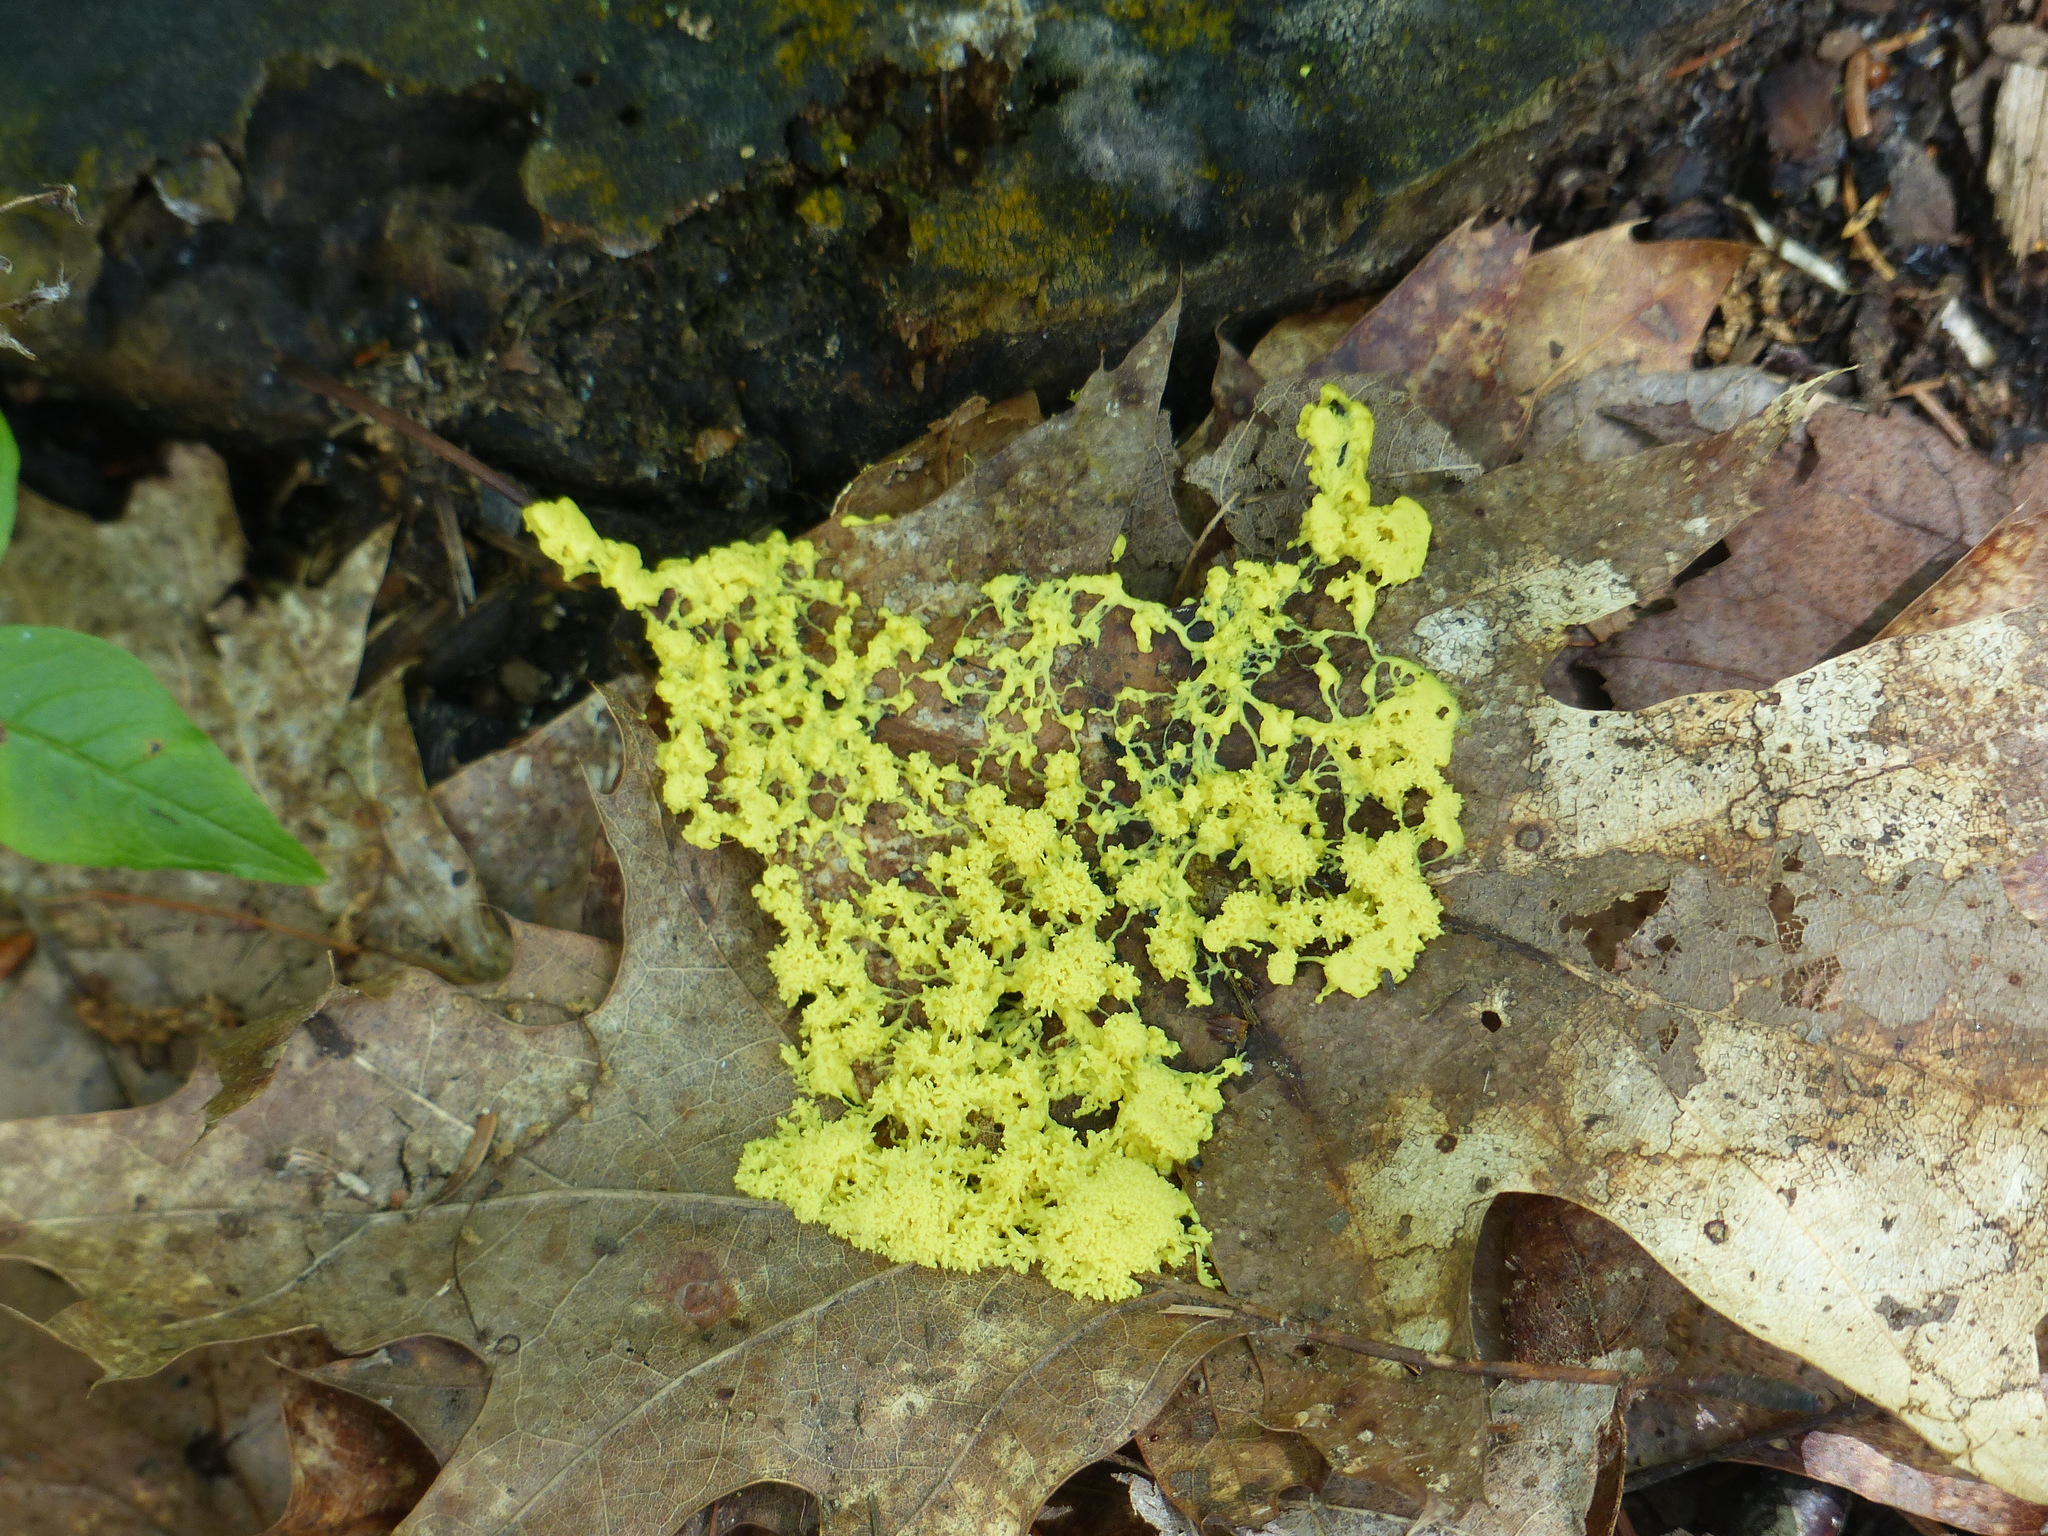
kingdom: Protozoa
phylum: Mycetozoa
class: Myxomycetes
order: Physarales
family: Physaraceae
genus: Fuligo
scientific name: Fuligo septica
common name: Dog vomit slime mold
